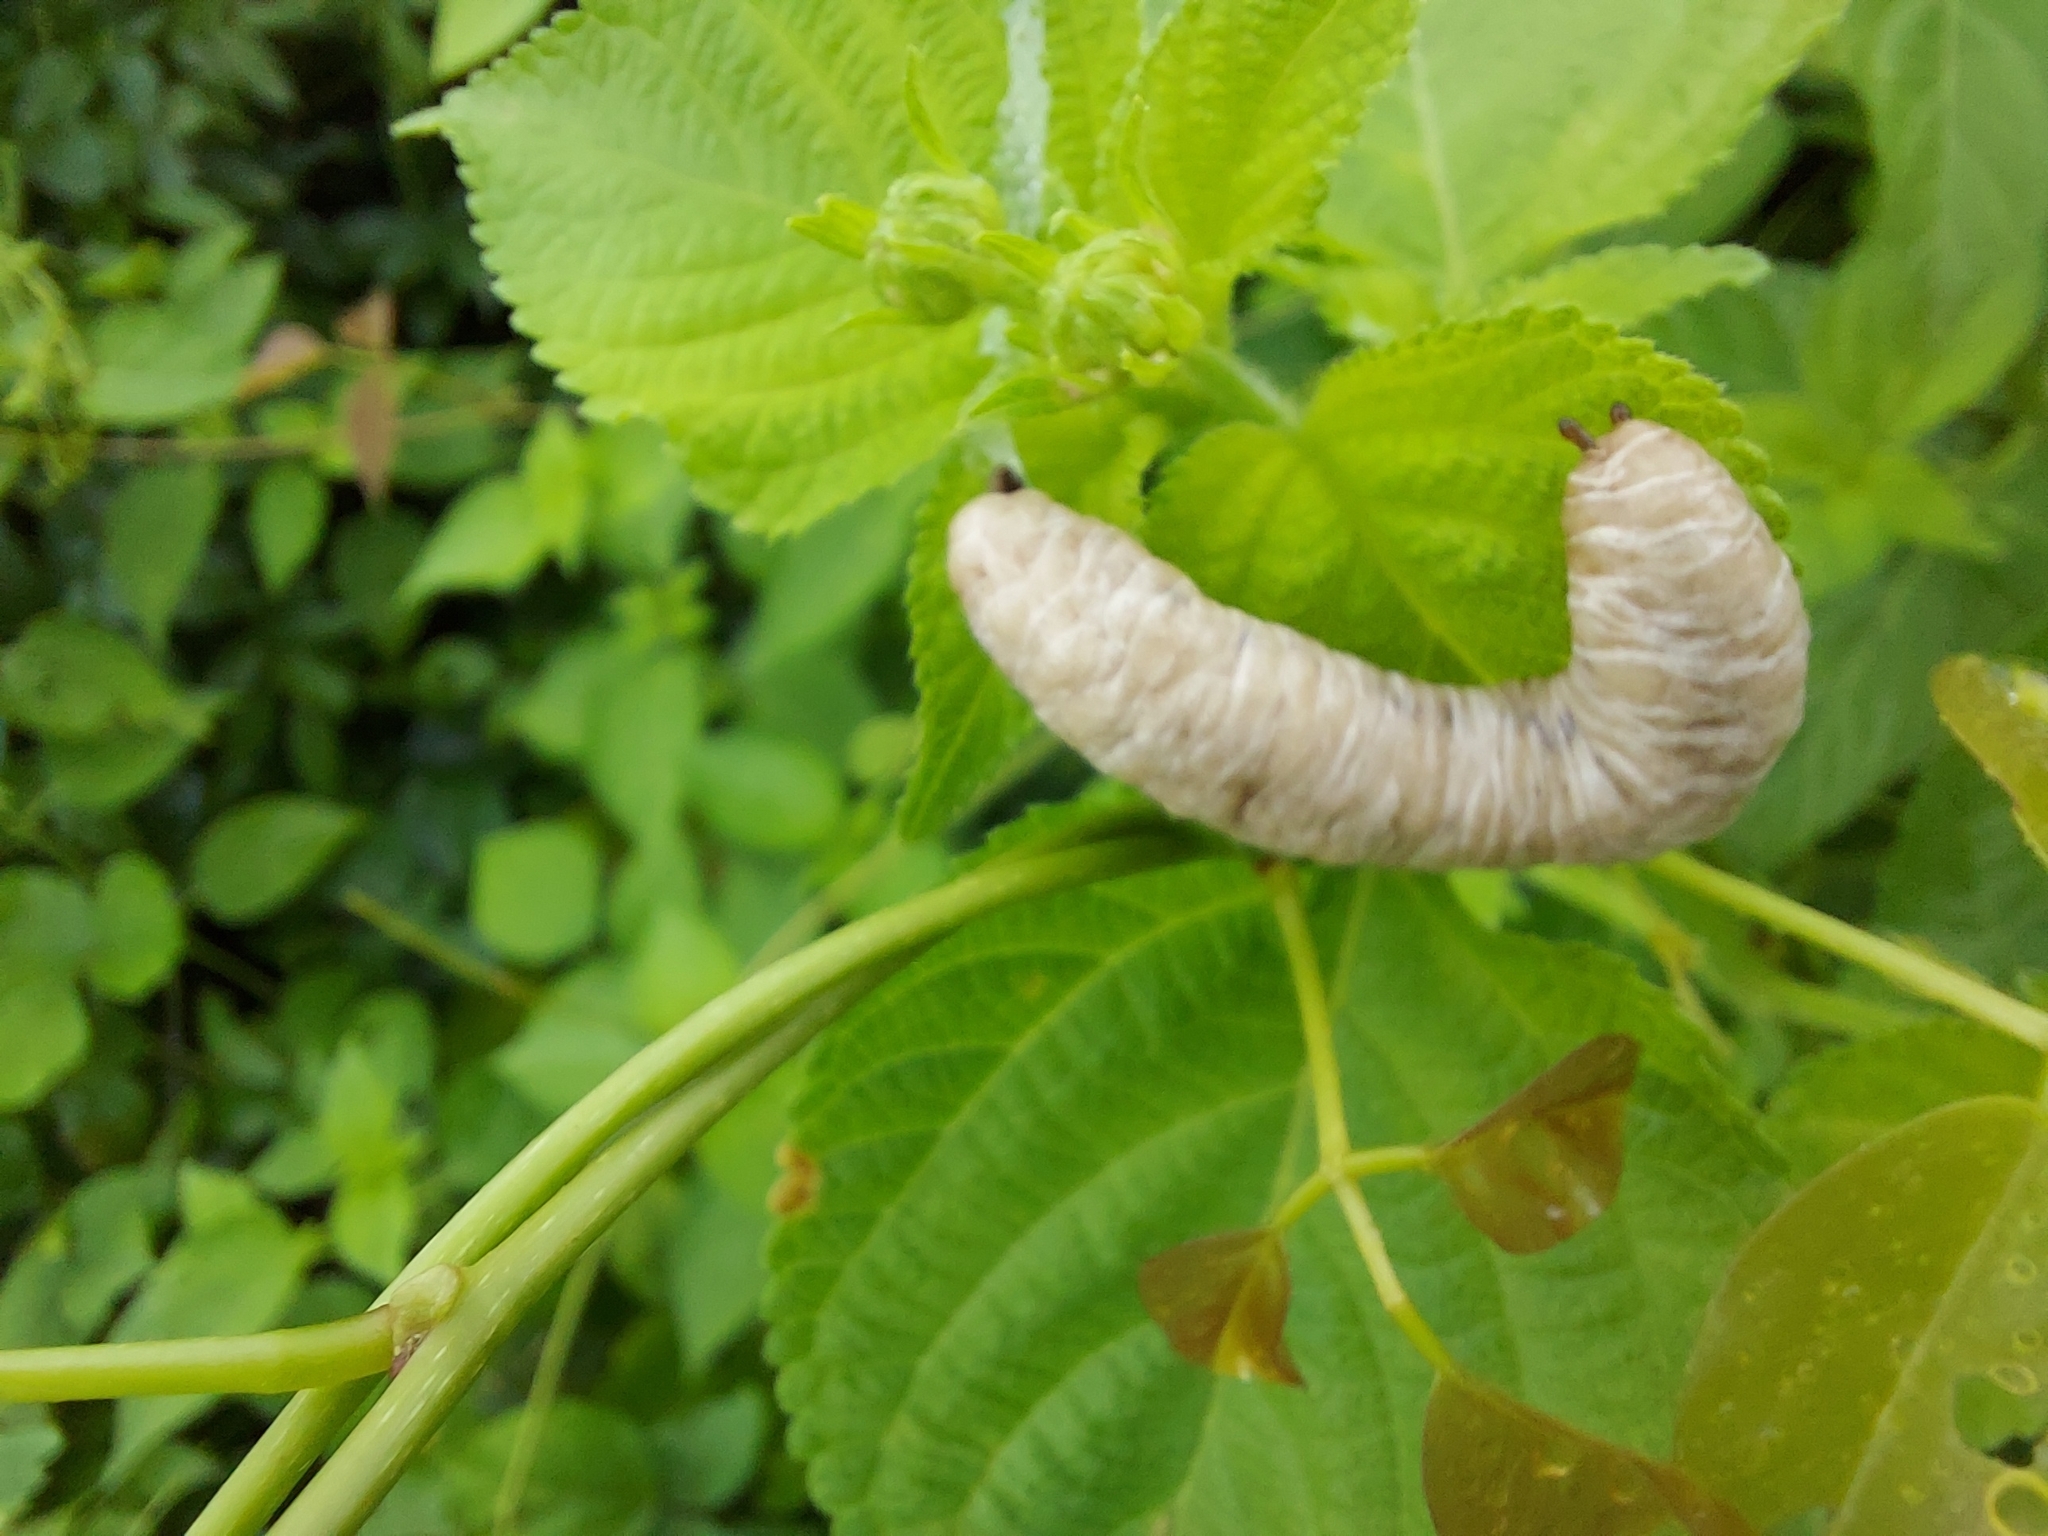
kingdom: Animalia
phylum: Mollusca
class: Gastropoda
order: Systellommatophora
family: Veronicellidae
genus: Laevicaulis
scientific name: Laevicaulis haroldi
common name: Caterpillar slug
